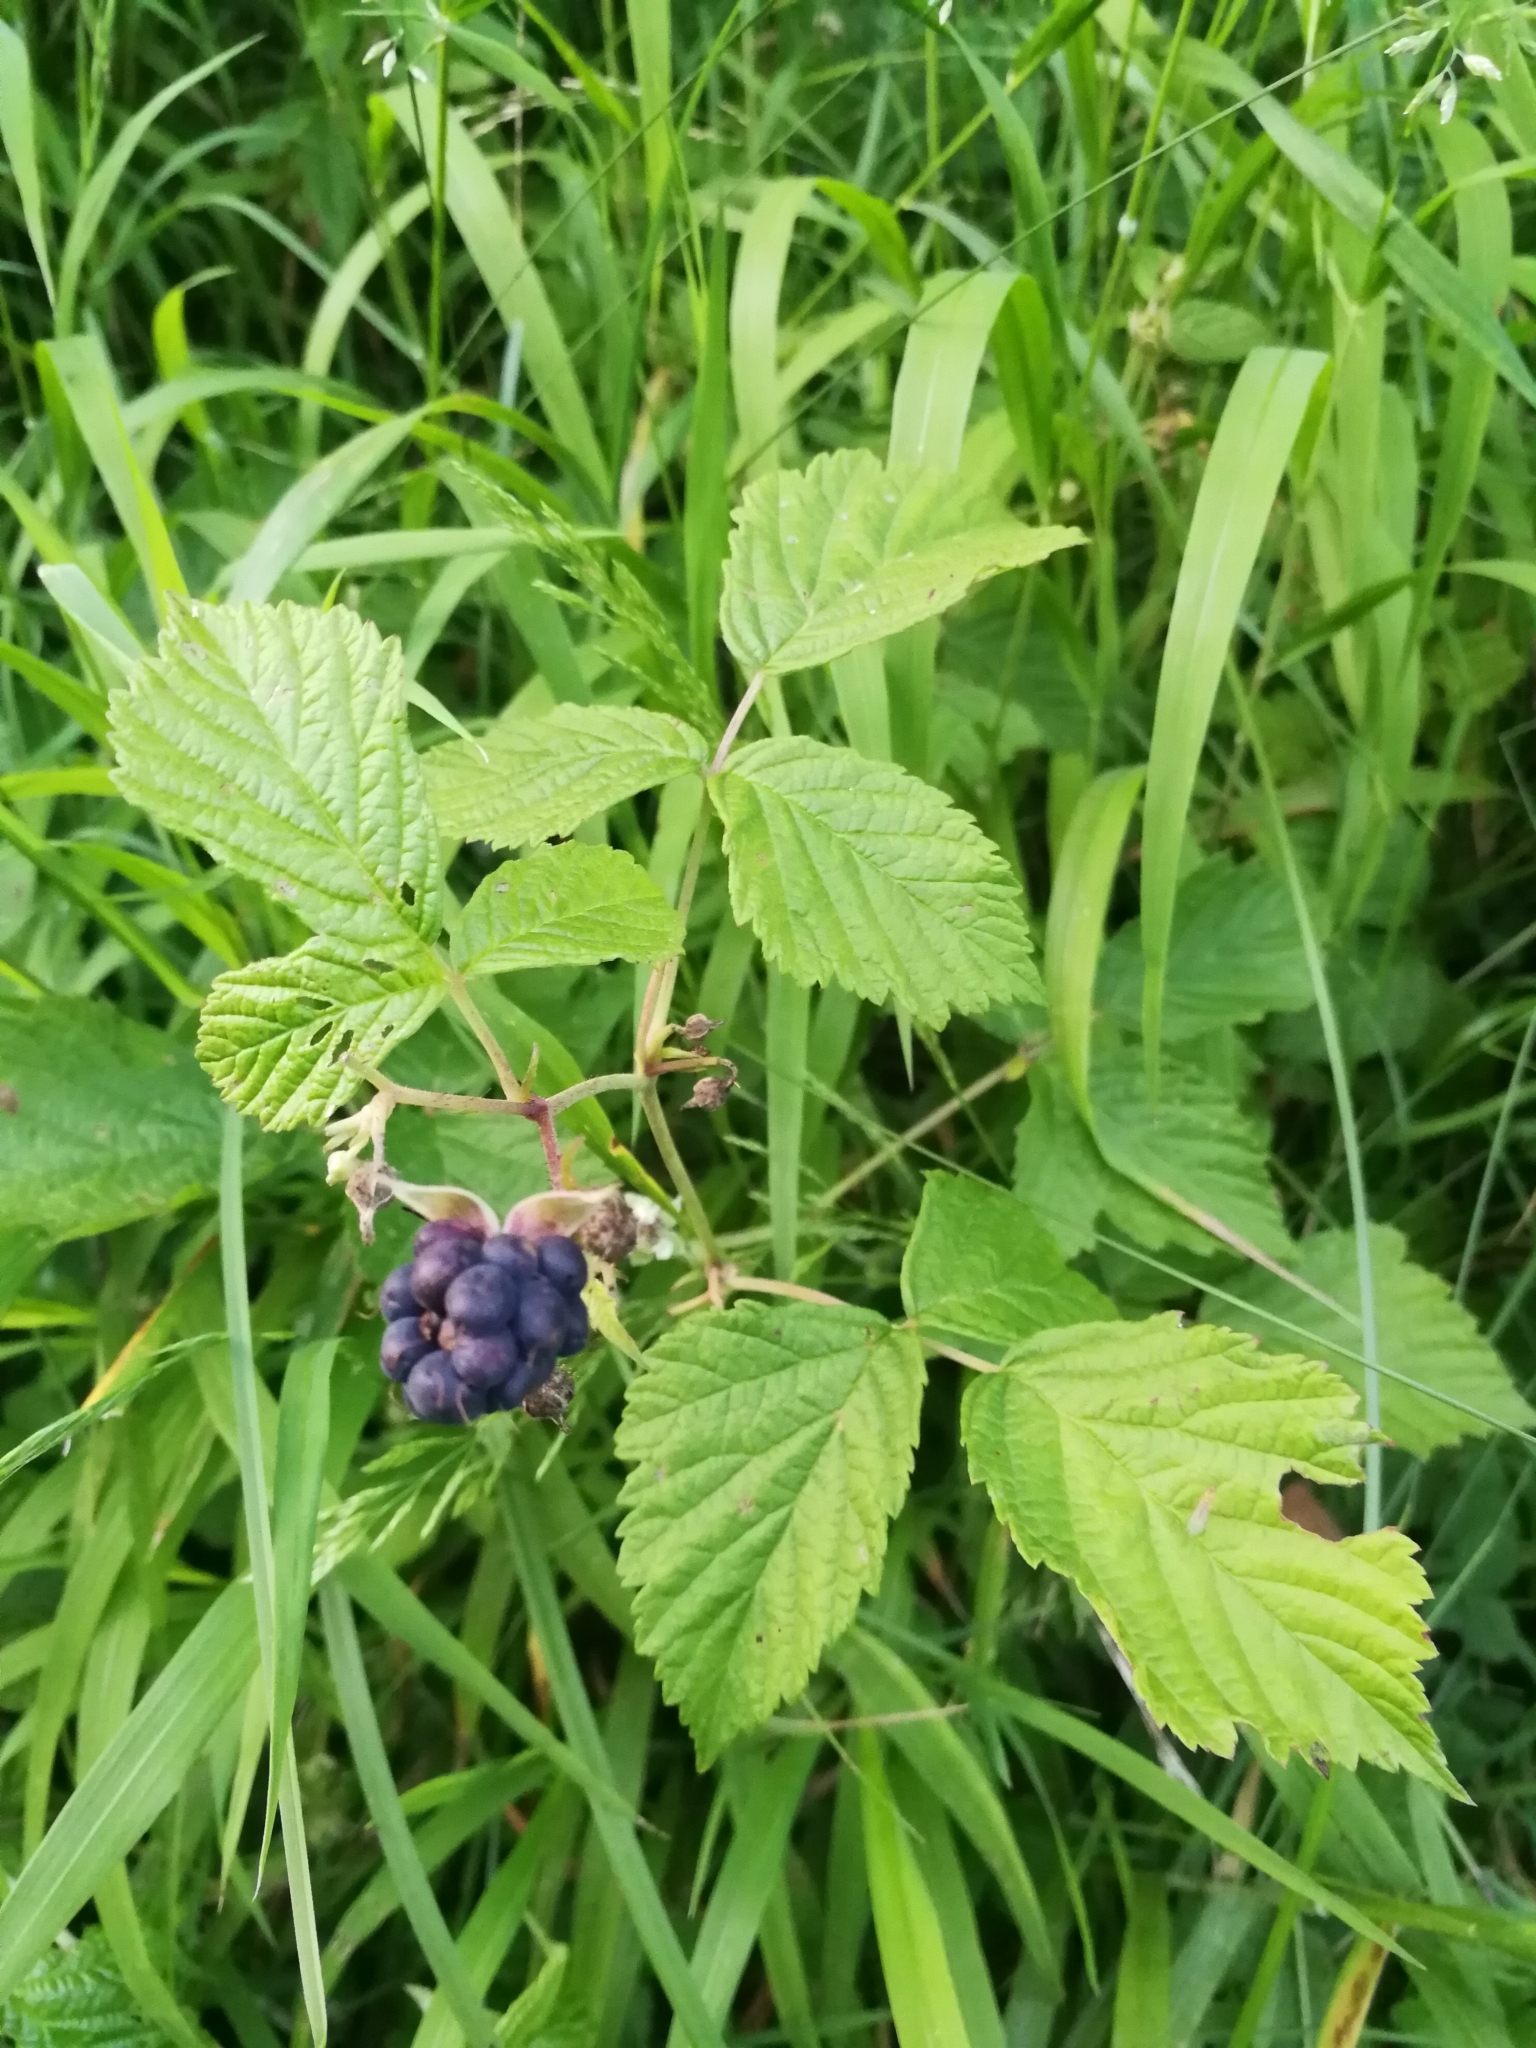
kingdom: Plantae
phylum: Tracheophyta
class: Magnoliopsida
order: Rosales
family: Rosaceae
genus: Rubus
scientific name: Rubus caesius
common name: Dewberry
